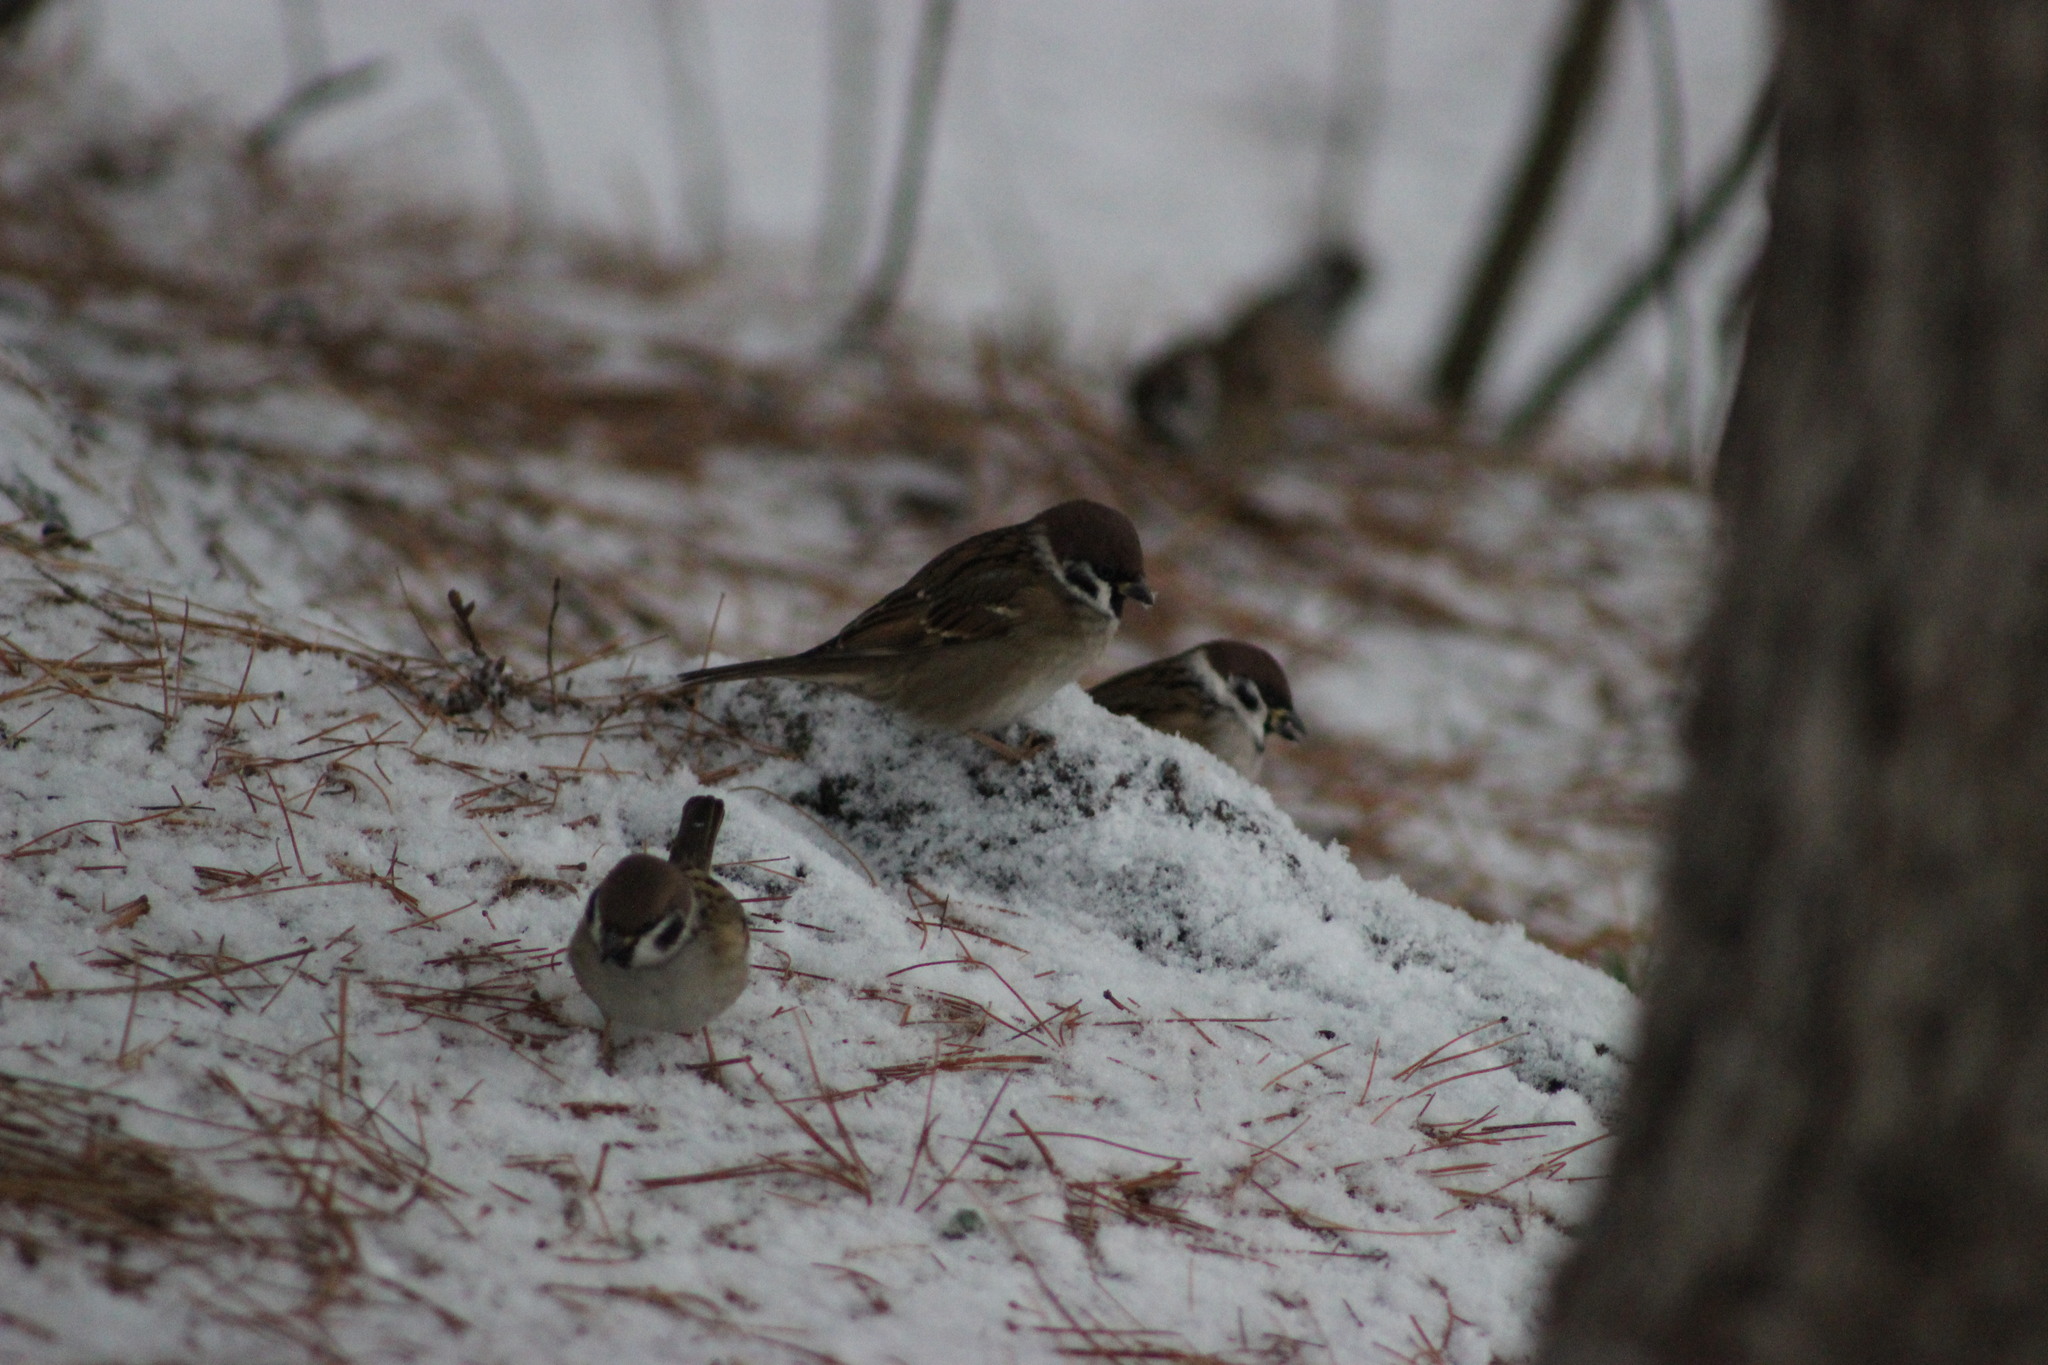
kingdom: Animalia
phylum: Chordata
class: Aves
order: Passeriformes
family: Passeridae
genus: Passer
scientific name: Passer montanus
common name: Eurasian tree sparrow
